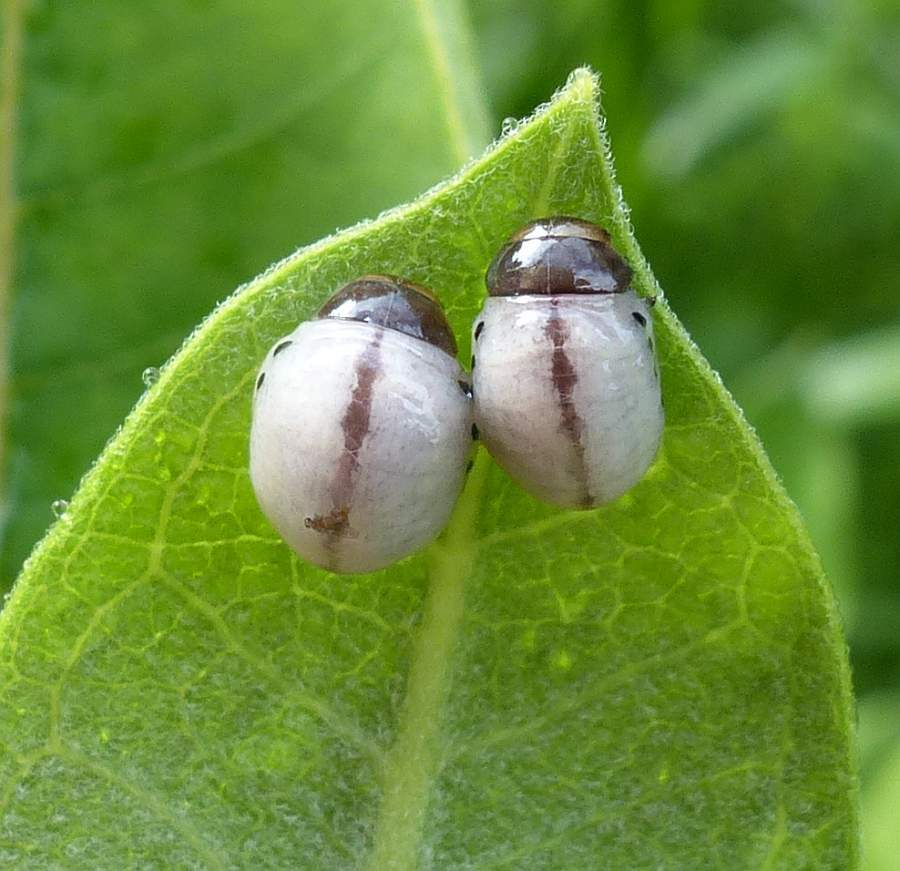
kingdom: Animalia
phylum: Arthropoda
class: Insecta
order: Coleoptera
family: Chrysomelidae
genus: Labidomera
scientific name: Labidomera clivicollis
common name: Swamp milkweed leaf beetle
